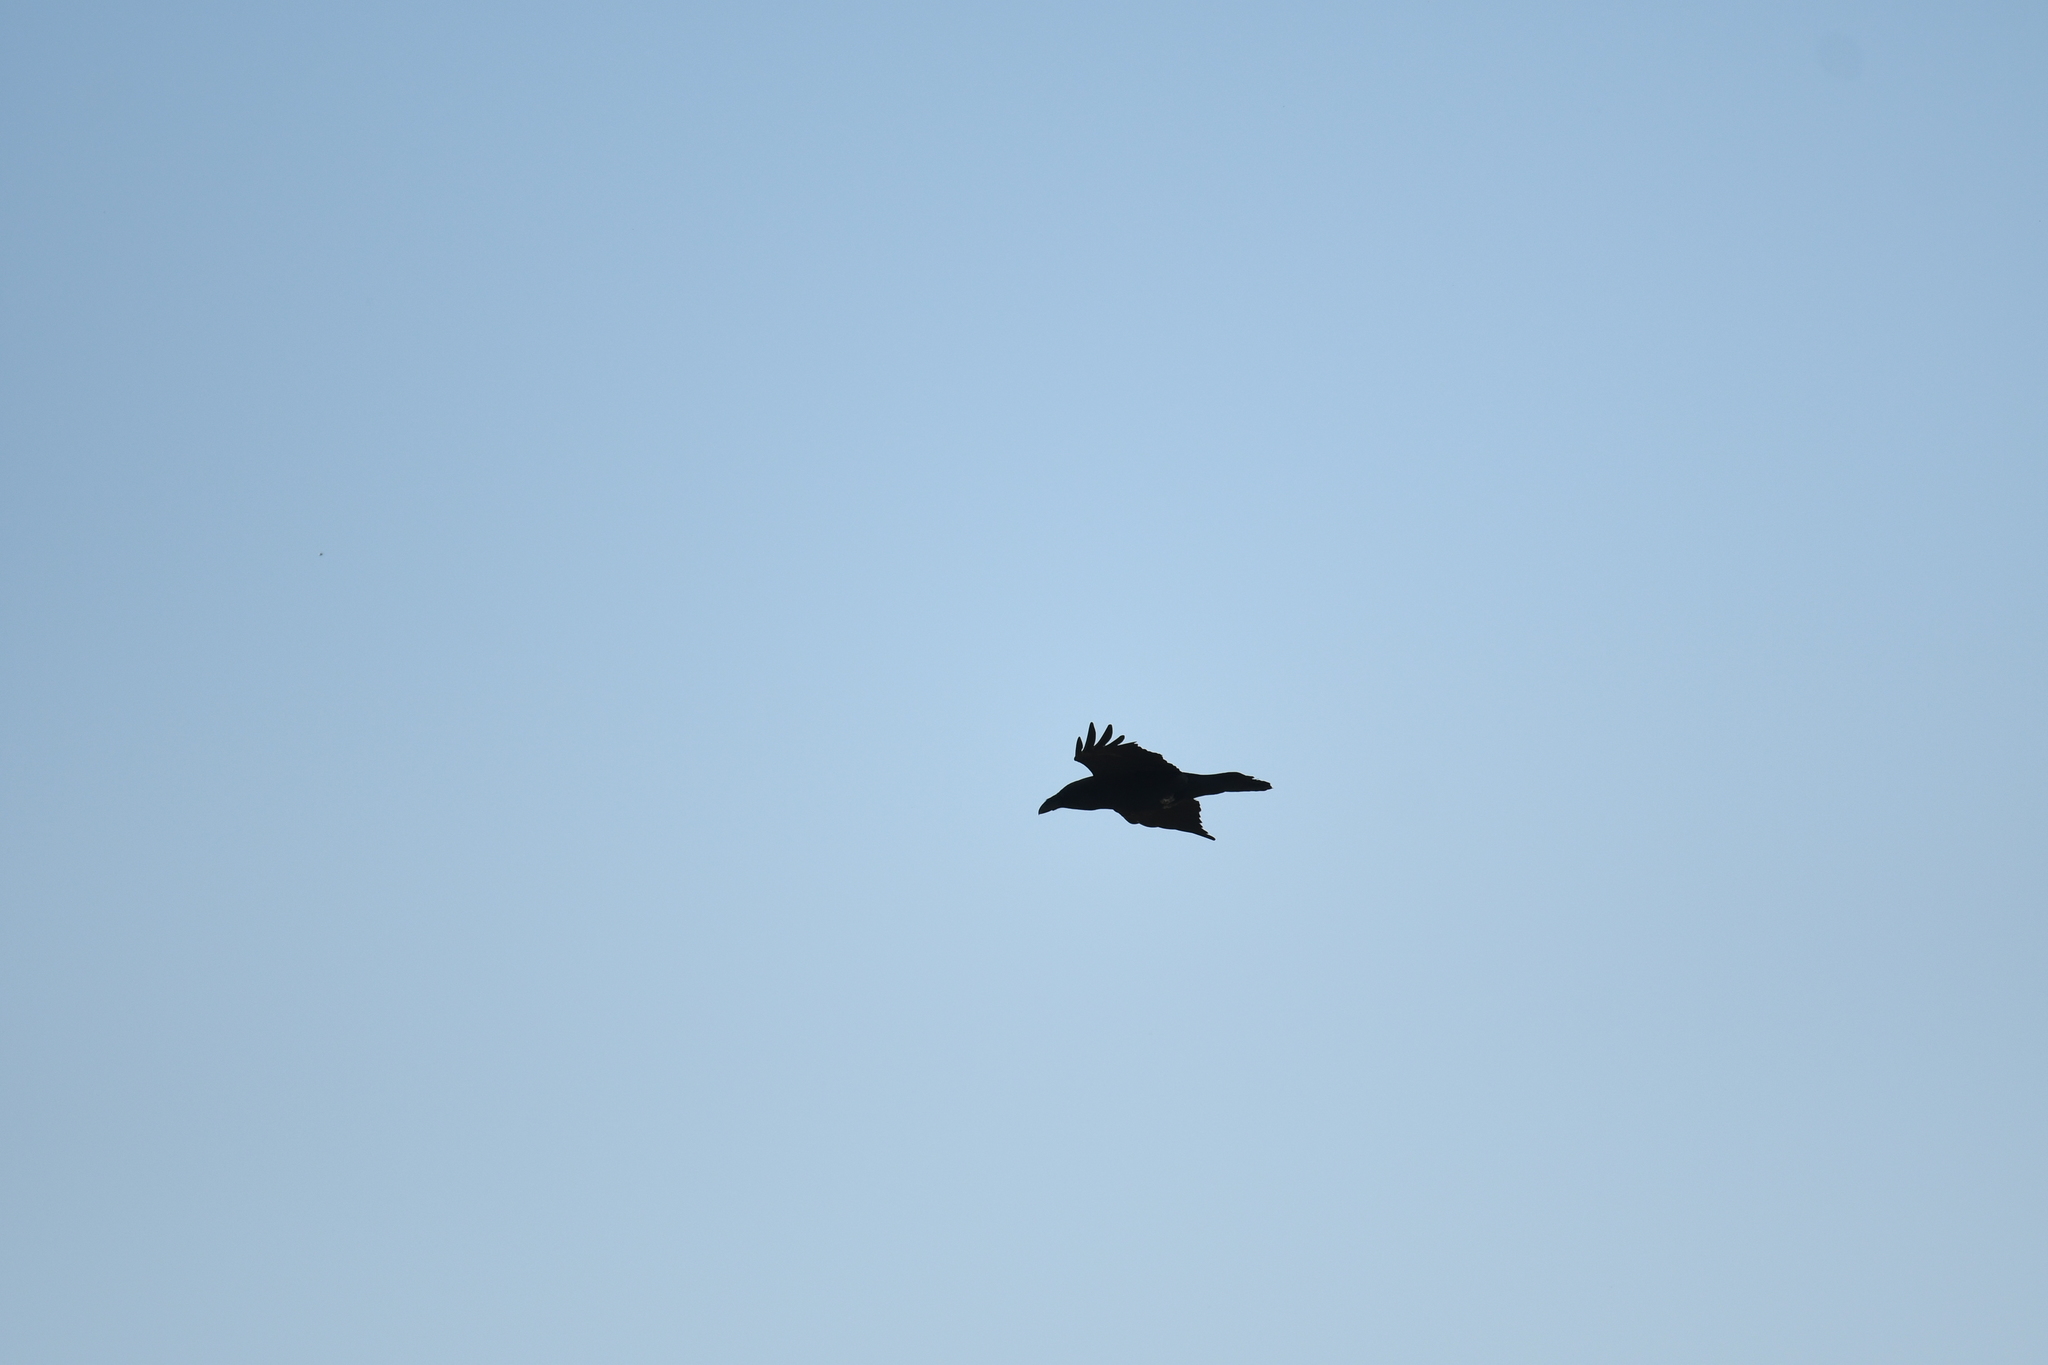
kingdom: Animalia
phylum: Chordata
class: Aves
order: Passeriformes
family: Corvidae
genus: Corvus
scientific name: Corvus corax
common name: Common raven
